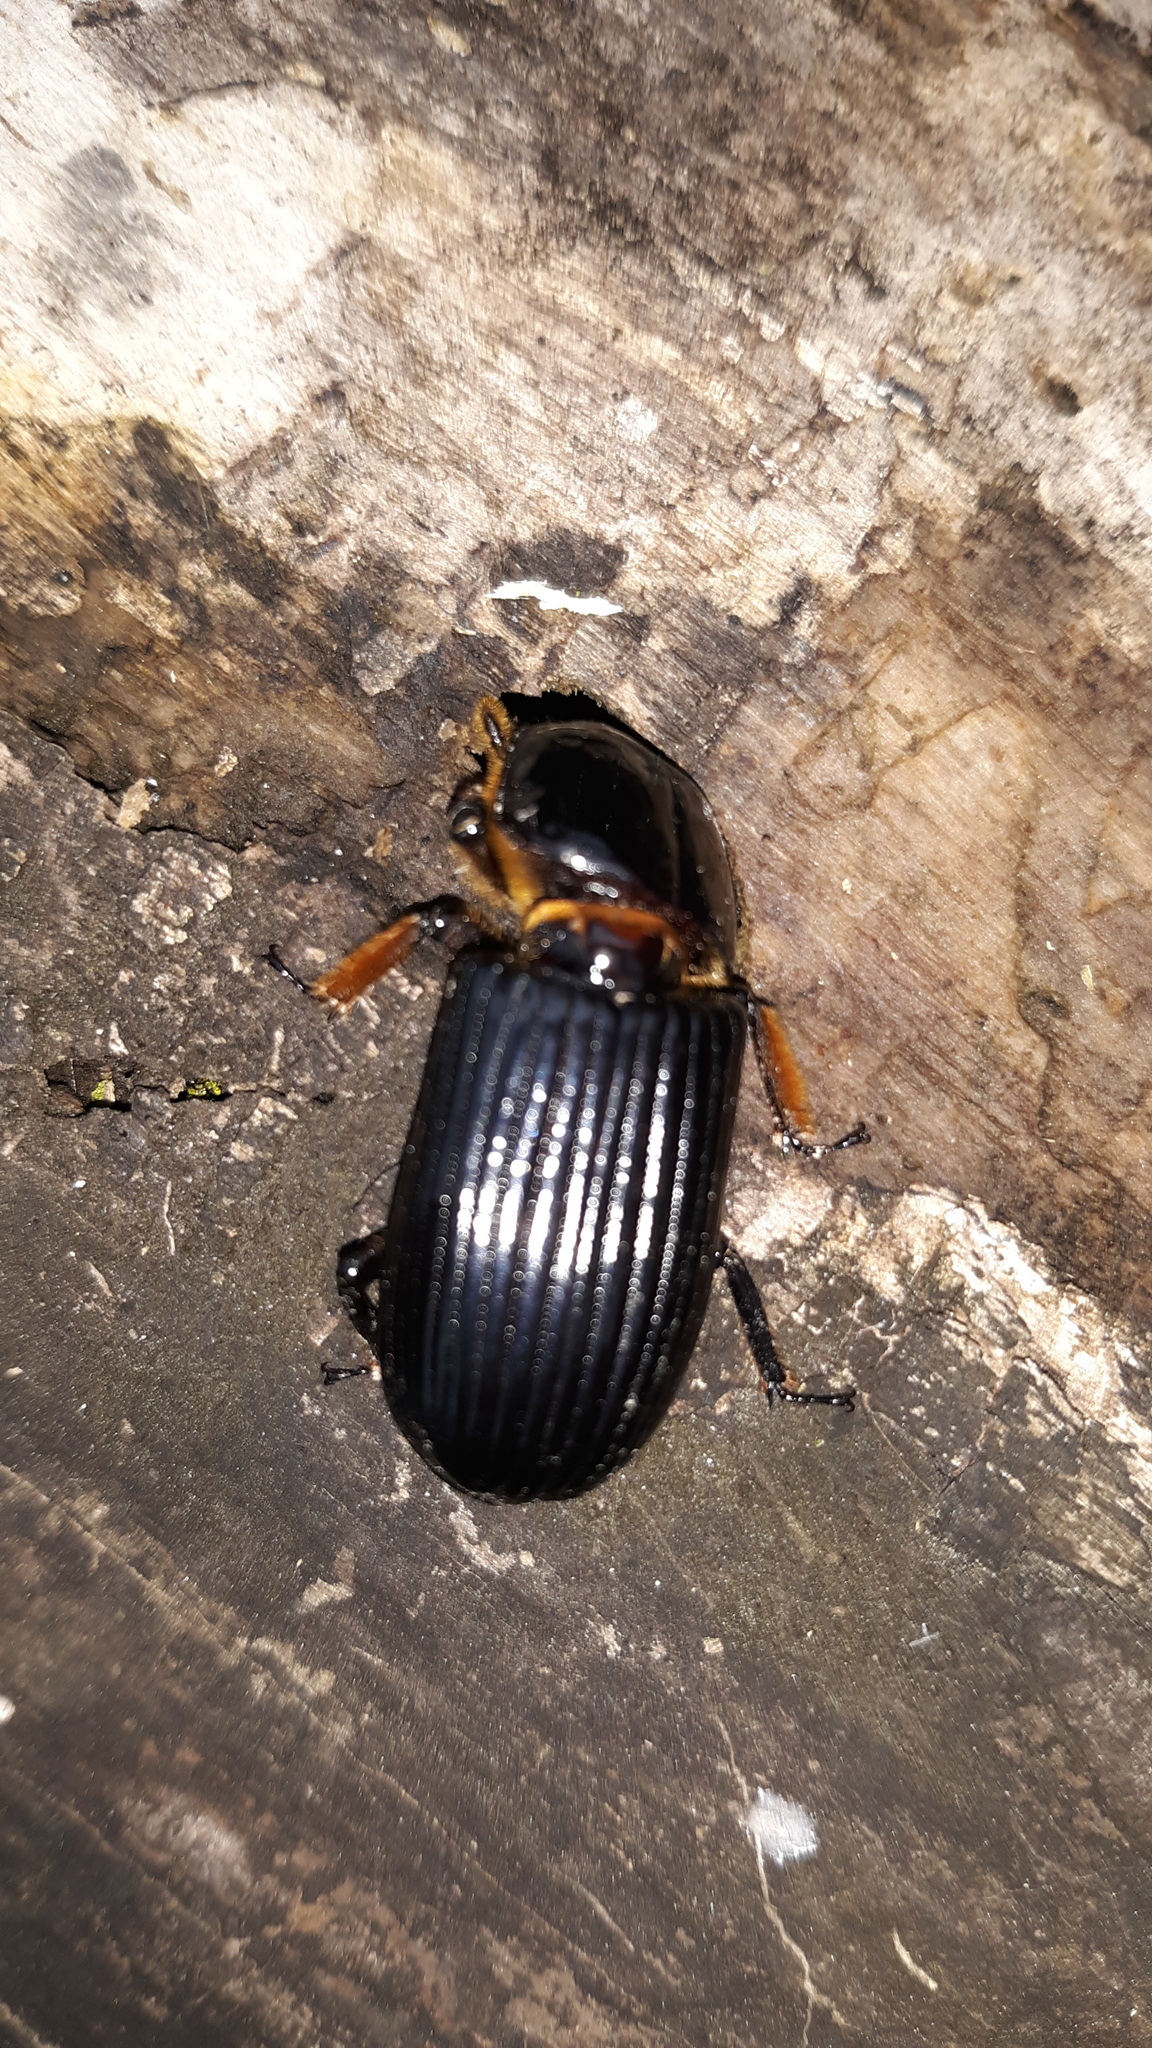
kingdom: Animalia
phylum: Arthropoda
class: Insecta
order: Coleoptera
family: Passalidae
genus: Odontotaenius
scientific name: Odontotaenius disjunctus
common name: Patent leather beetle
